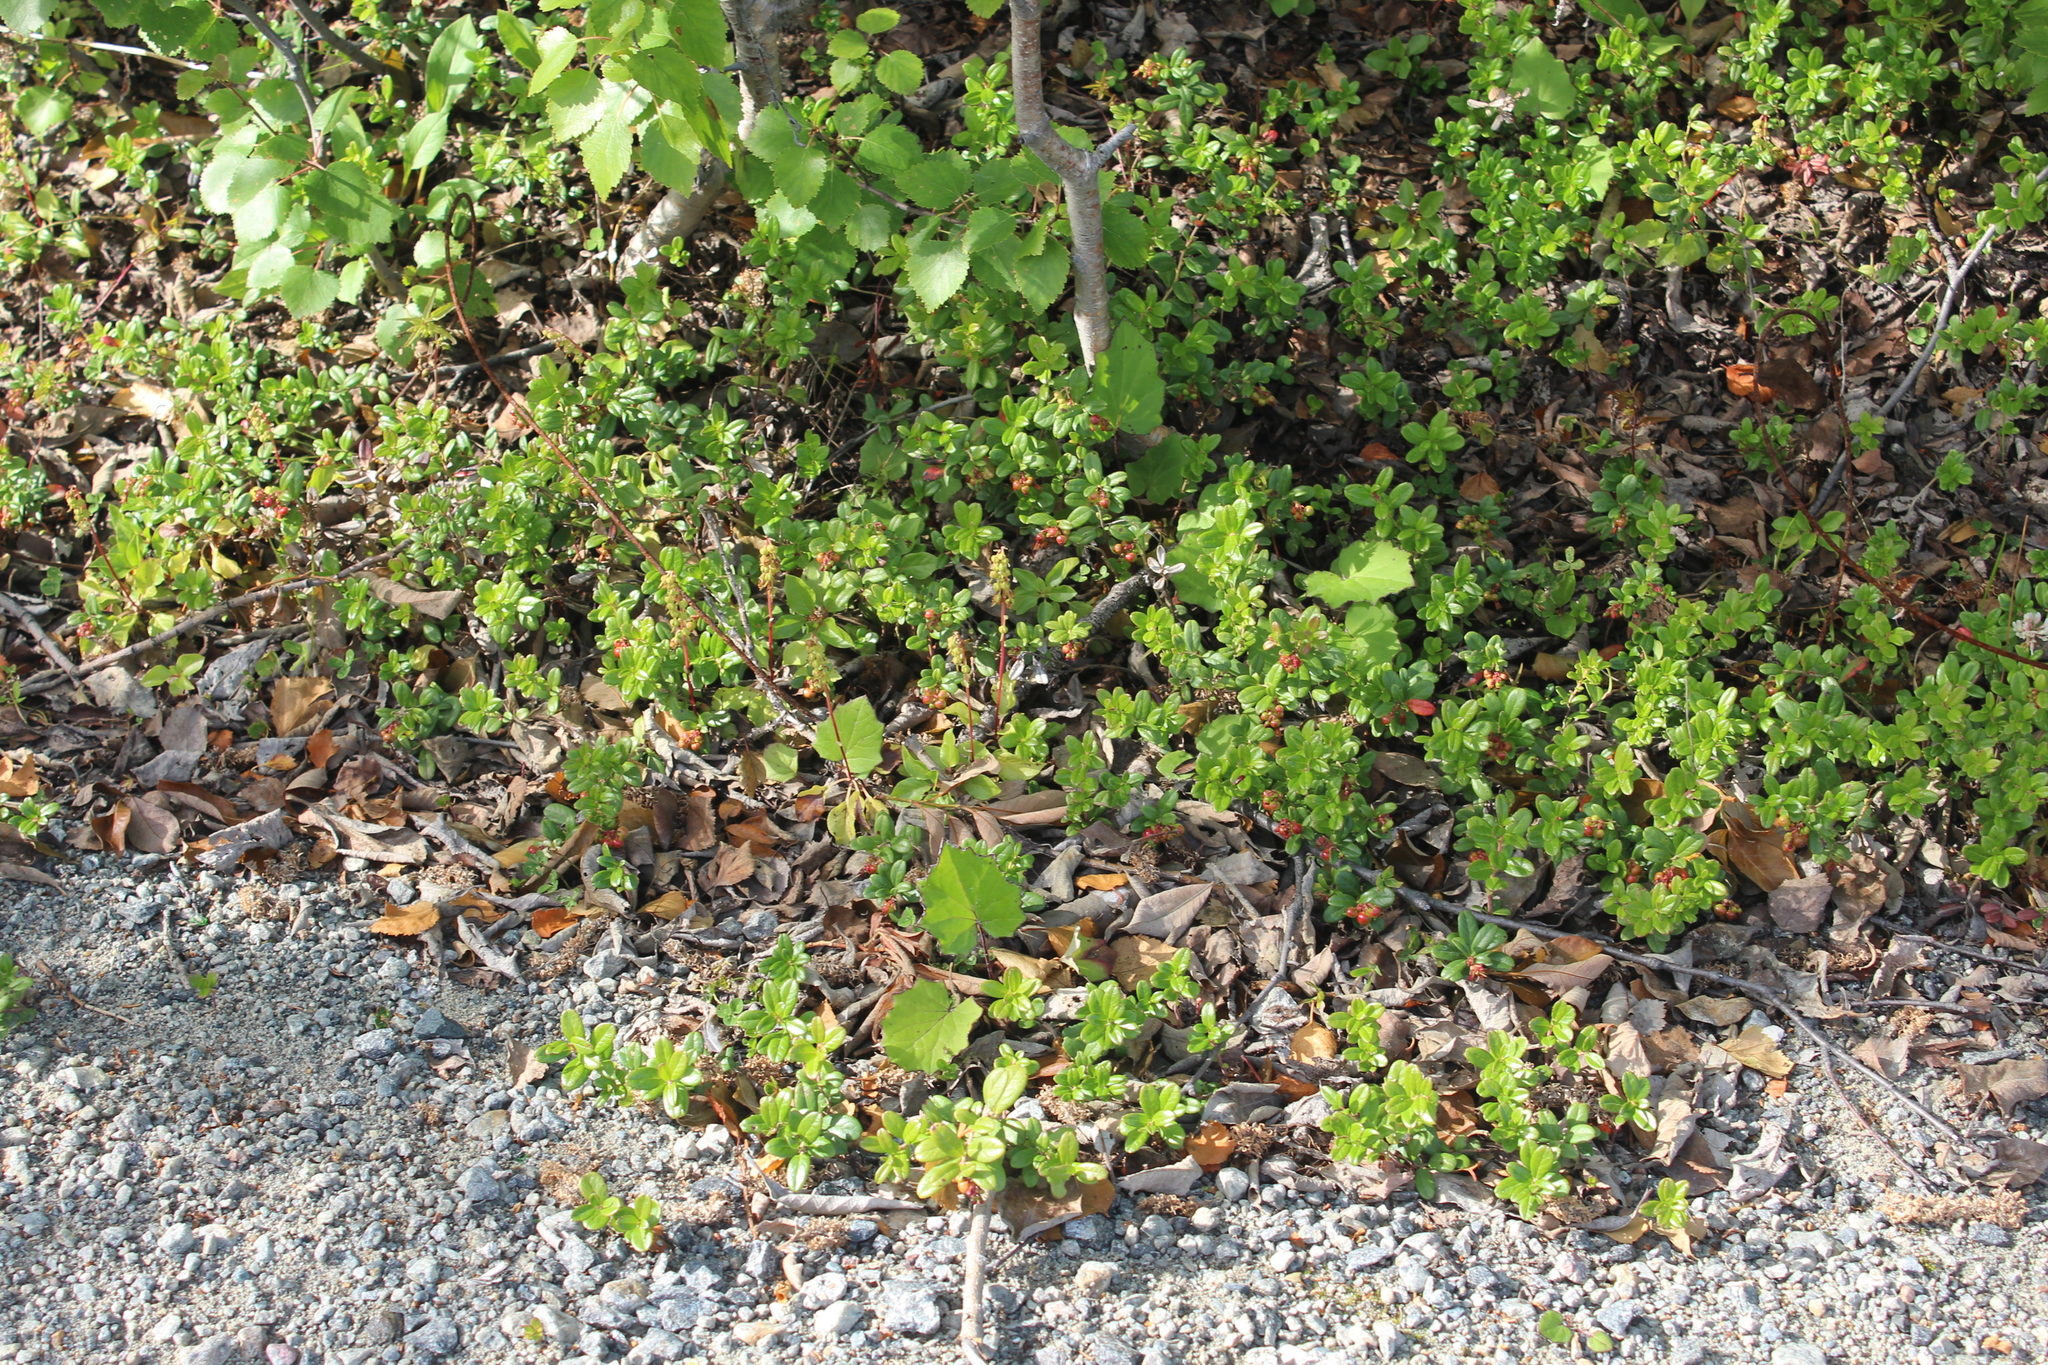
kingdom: Plantae
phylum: Tracheophyta
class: Magnoliopsida
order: Ericales
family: Ericaceae
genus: Vaccinium
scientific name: Vaccinium vitis-idaea
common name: Cowberry
